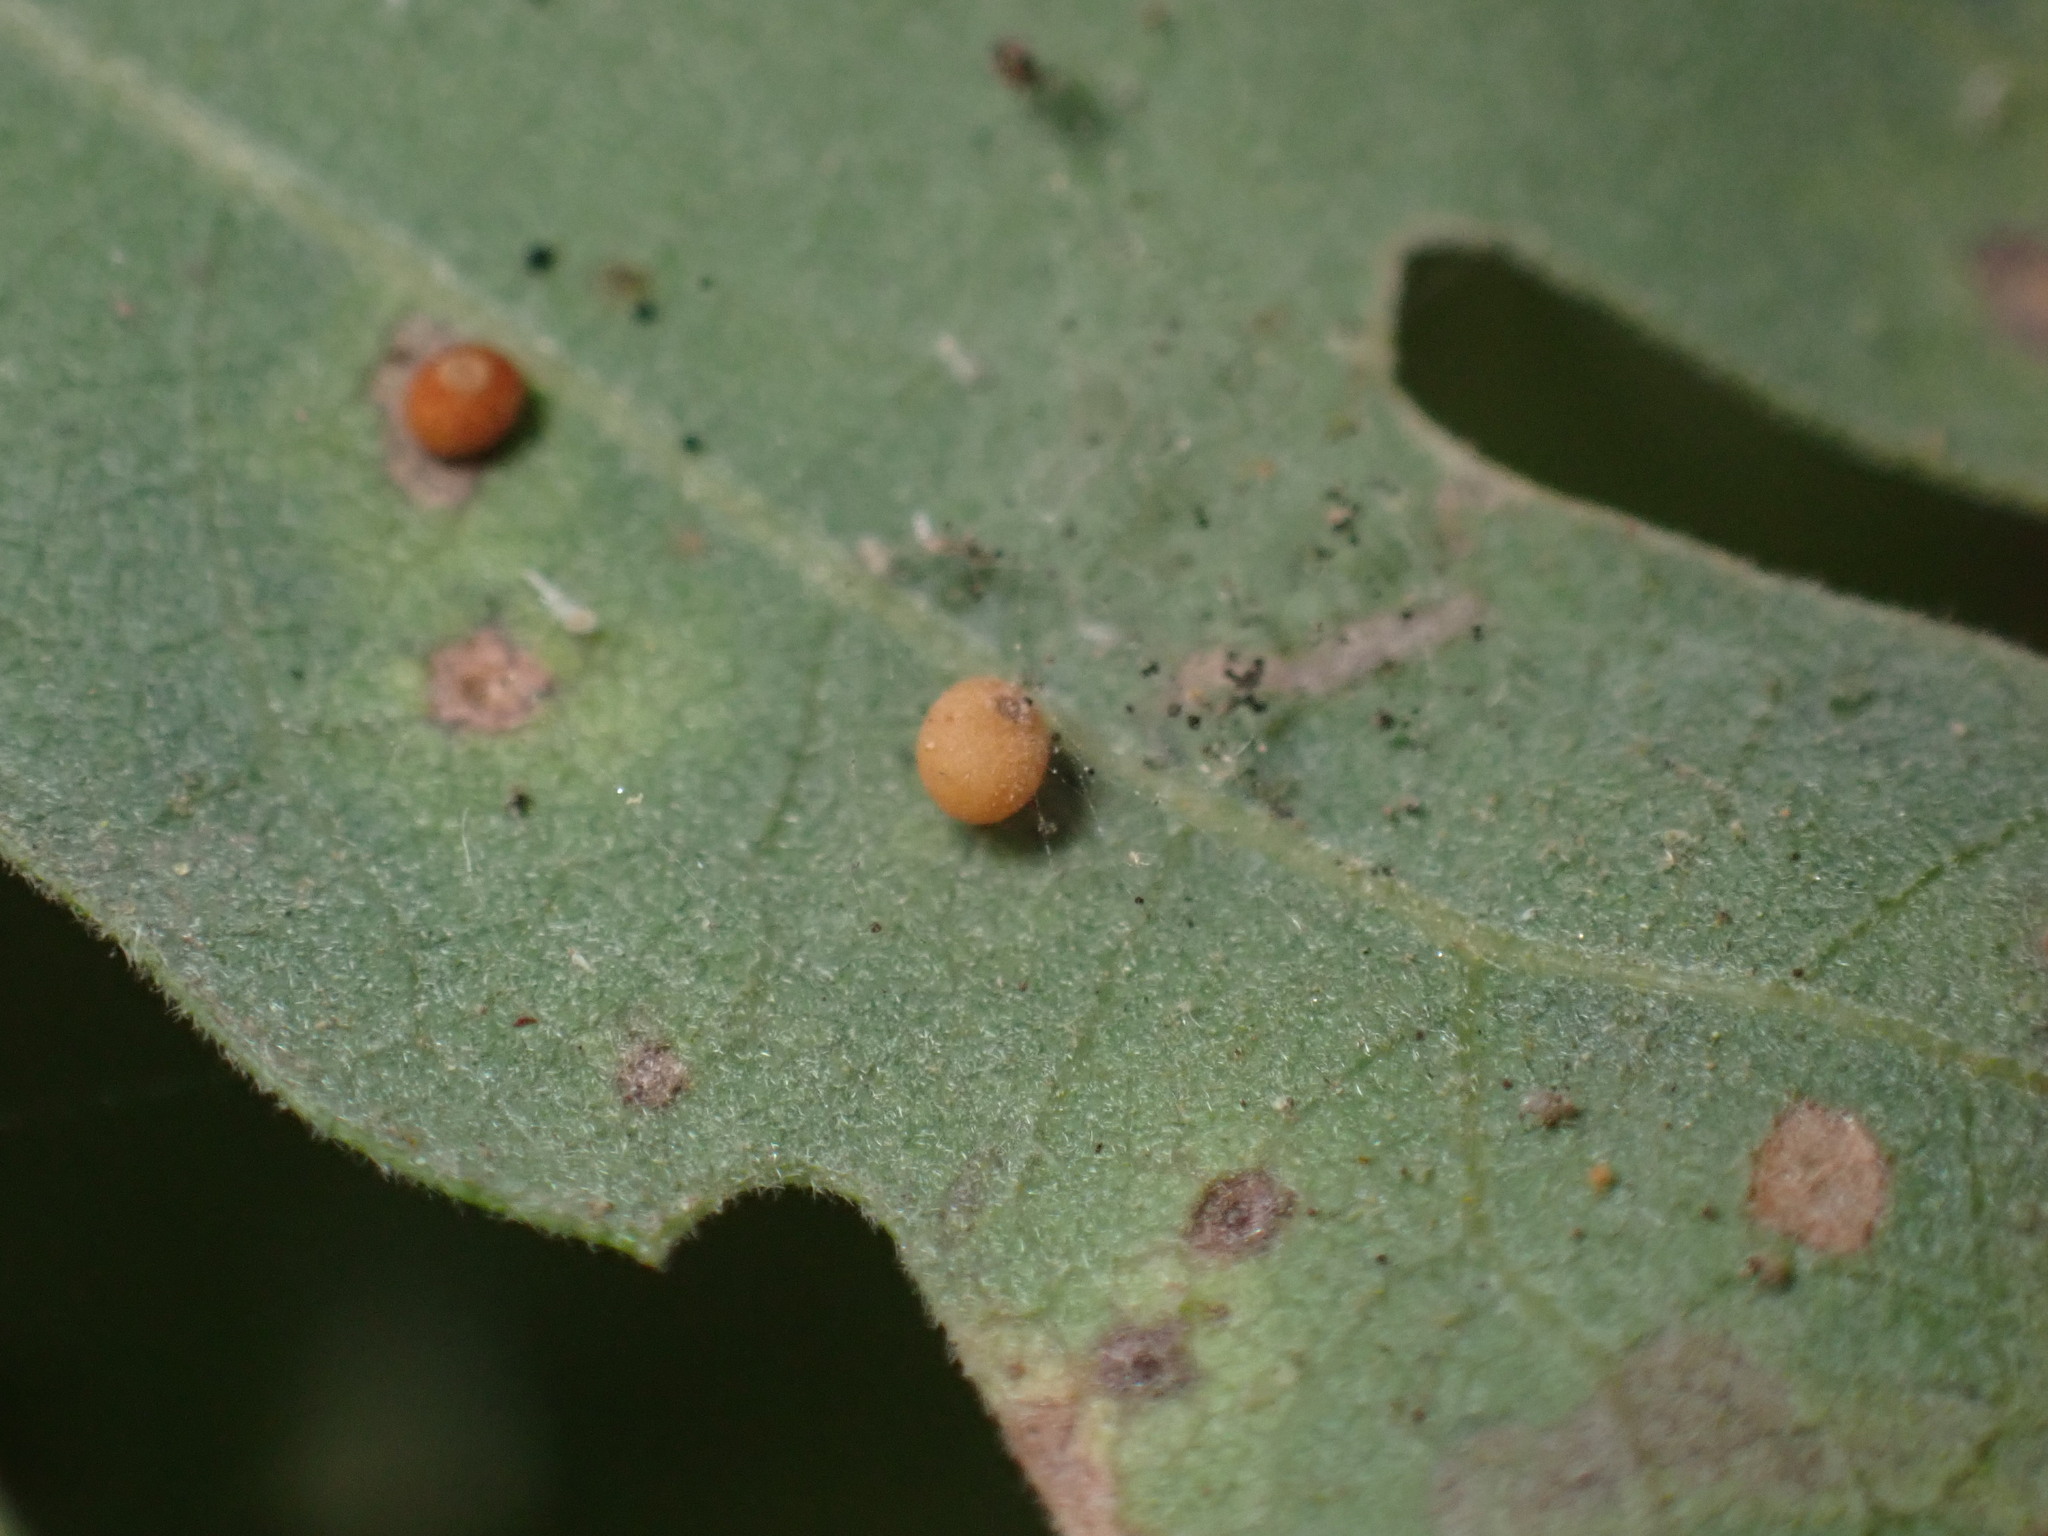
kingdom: Animalia
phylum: Arthropoda
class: Insecta
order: Hymenoptera
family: Cynipidae
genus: Neuroterus
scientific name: Neuroterus saltarius
